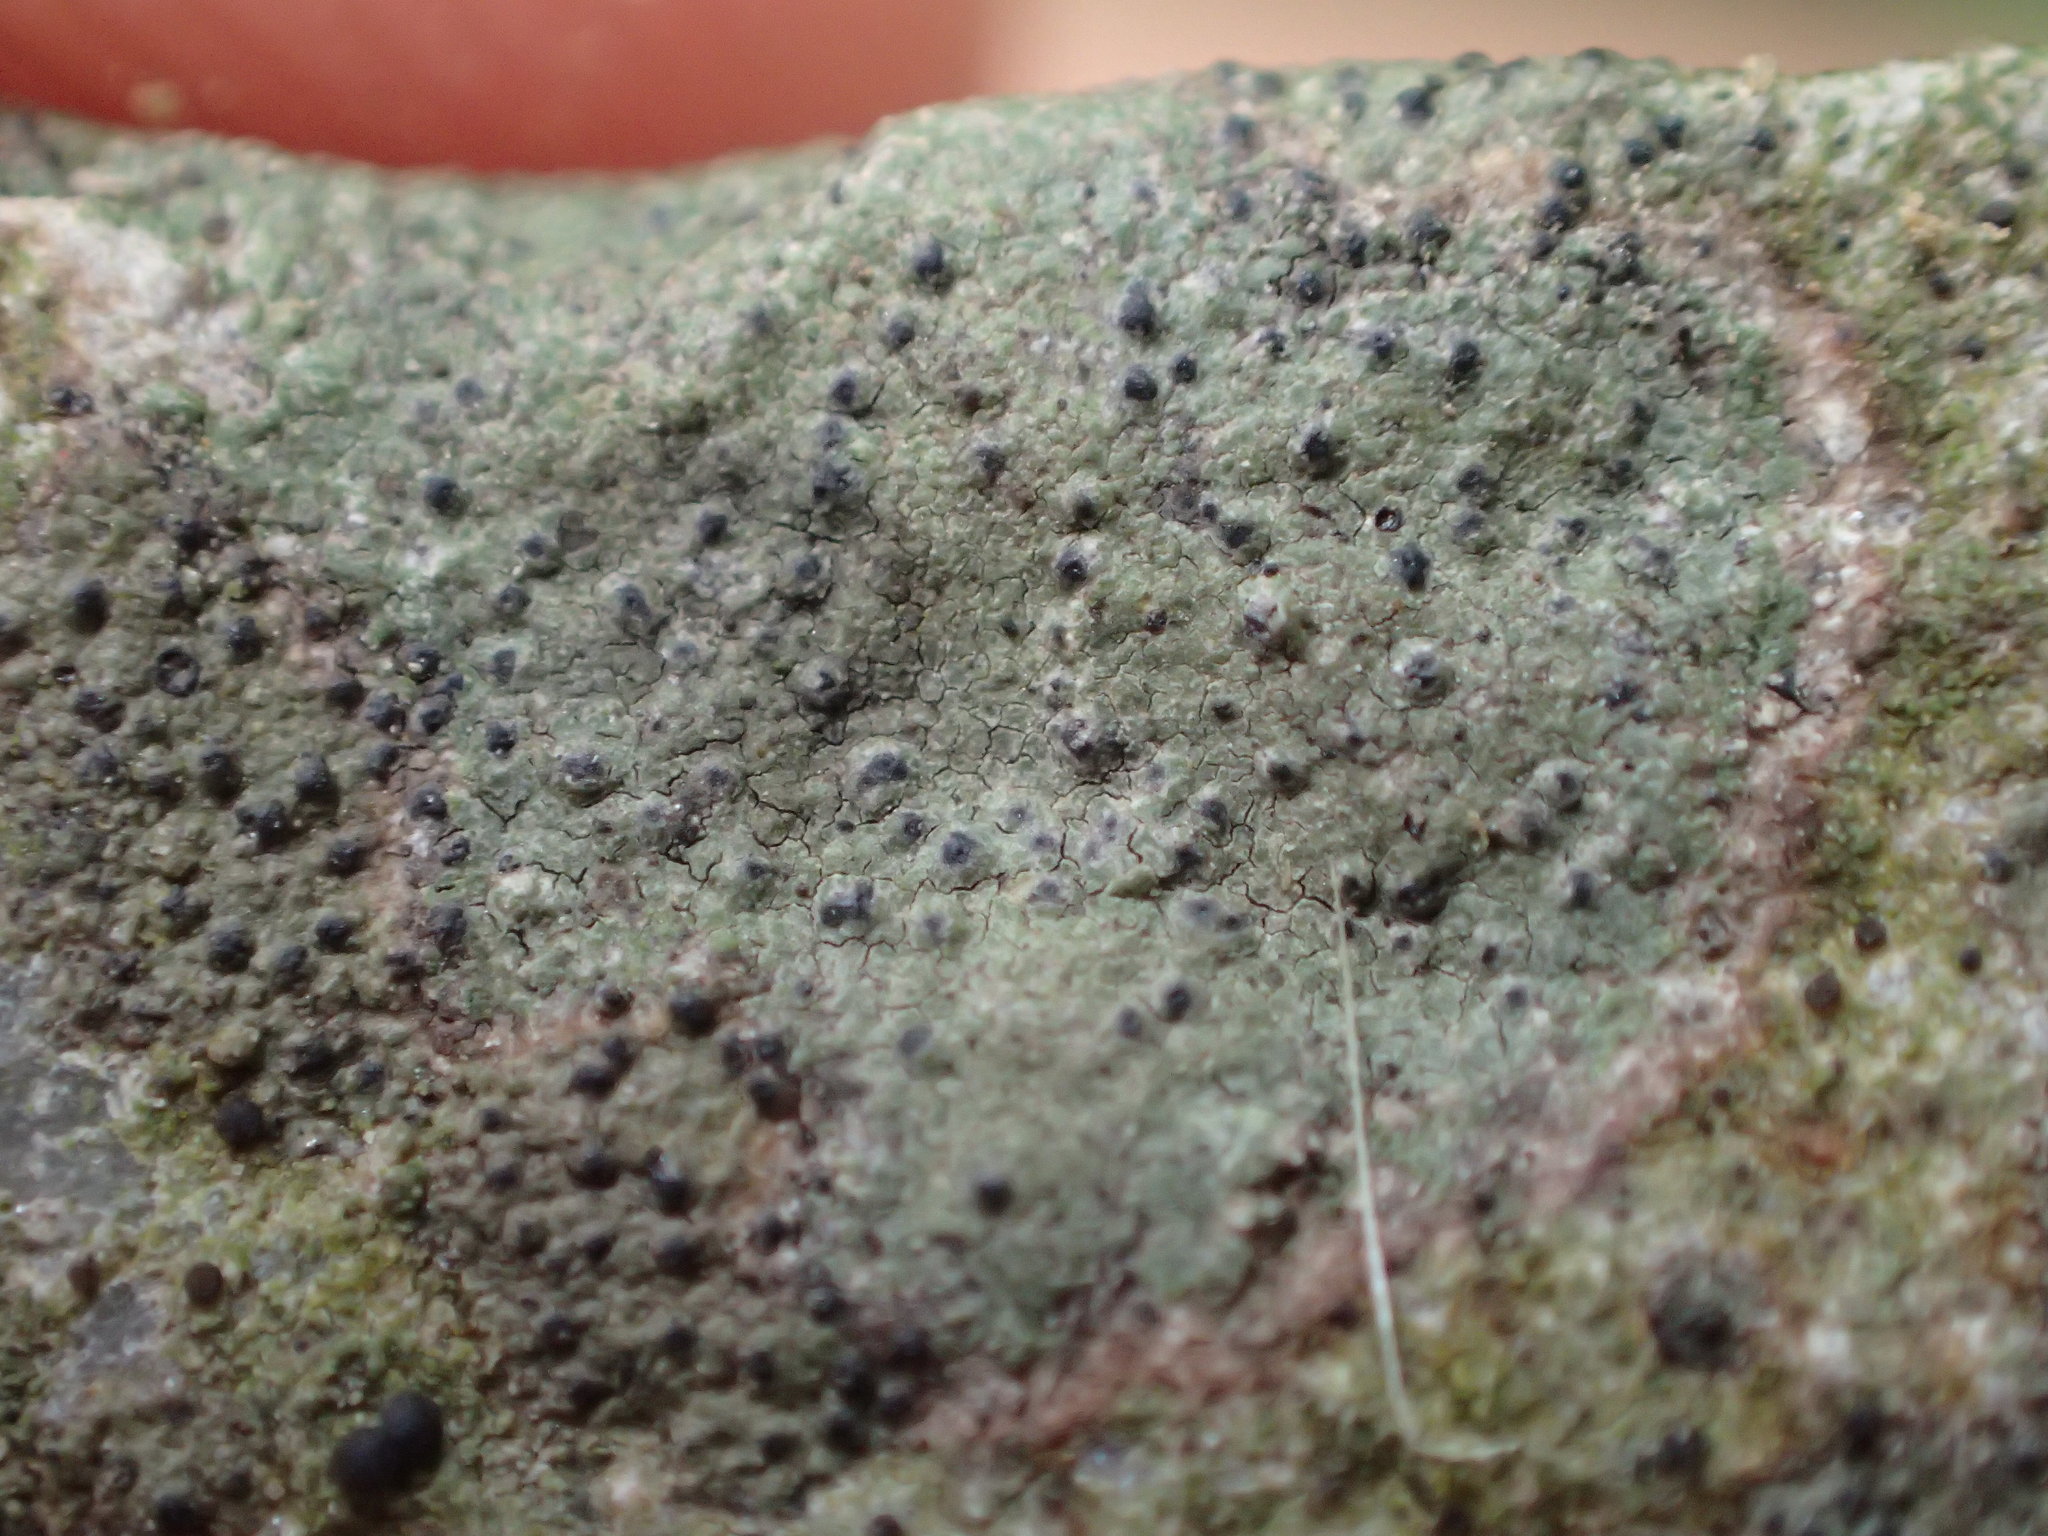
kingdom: Fungi
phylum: Ascomycota
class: Lecanoromycetes
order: Lecanorales
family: Ramalinaceae
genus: Bacidia
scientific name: Bacidia
